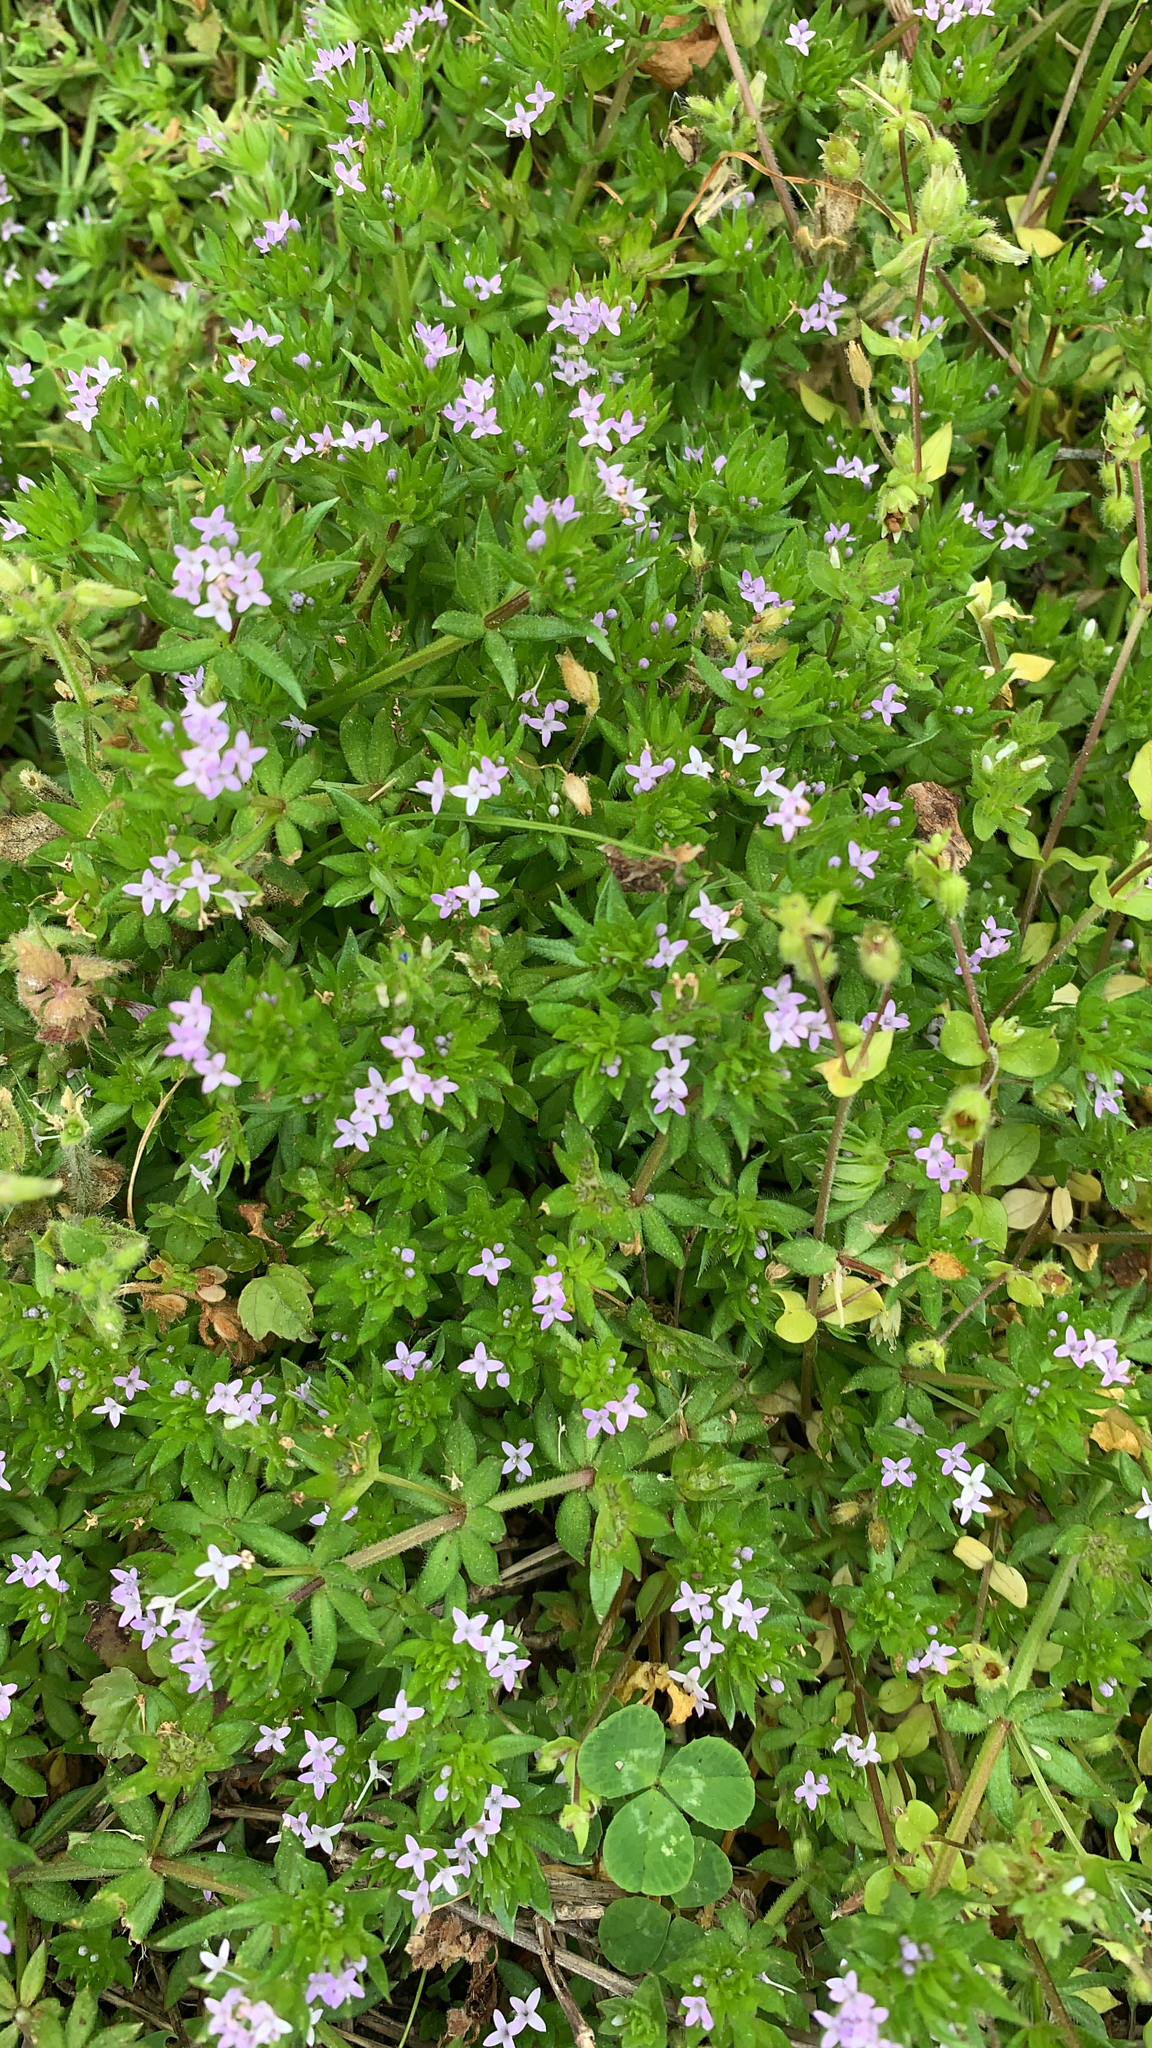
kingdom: Plantae
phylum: Tracheophyta
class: Magnoliopsida
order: Gentianales
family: Rubiaceae
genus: Sherardia
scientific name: Sherardia arvensis
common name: Field madder
